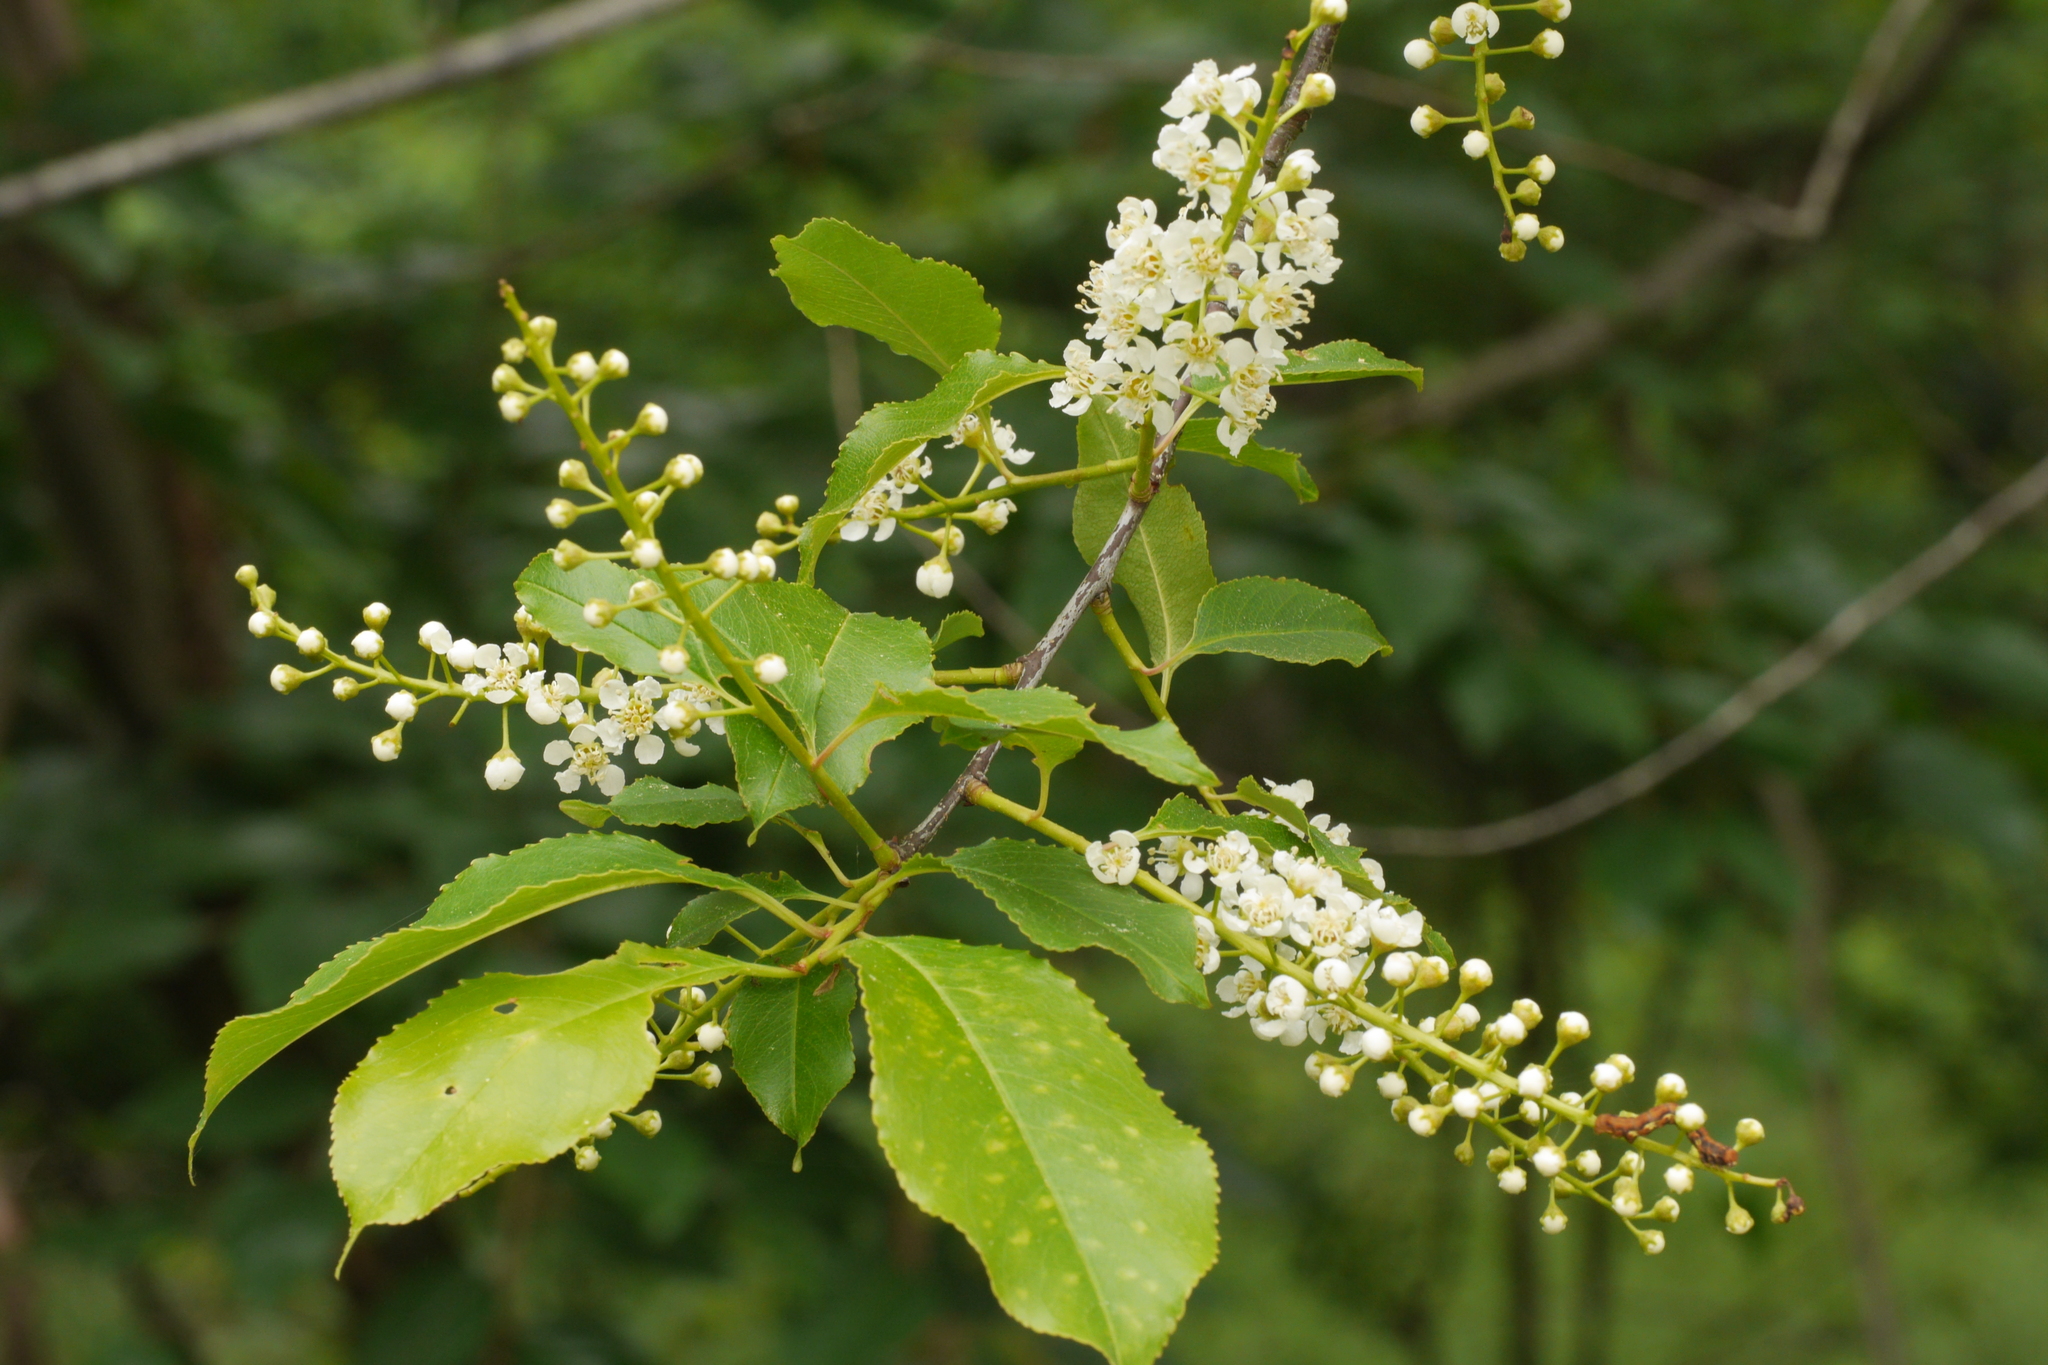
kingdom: Plantae
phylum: Tracheophyta
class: Magnoliopsida
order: Rosales
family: Rosaceae
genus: Prunus
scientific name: Prunus serotina
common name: Black cherry
